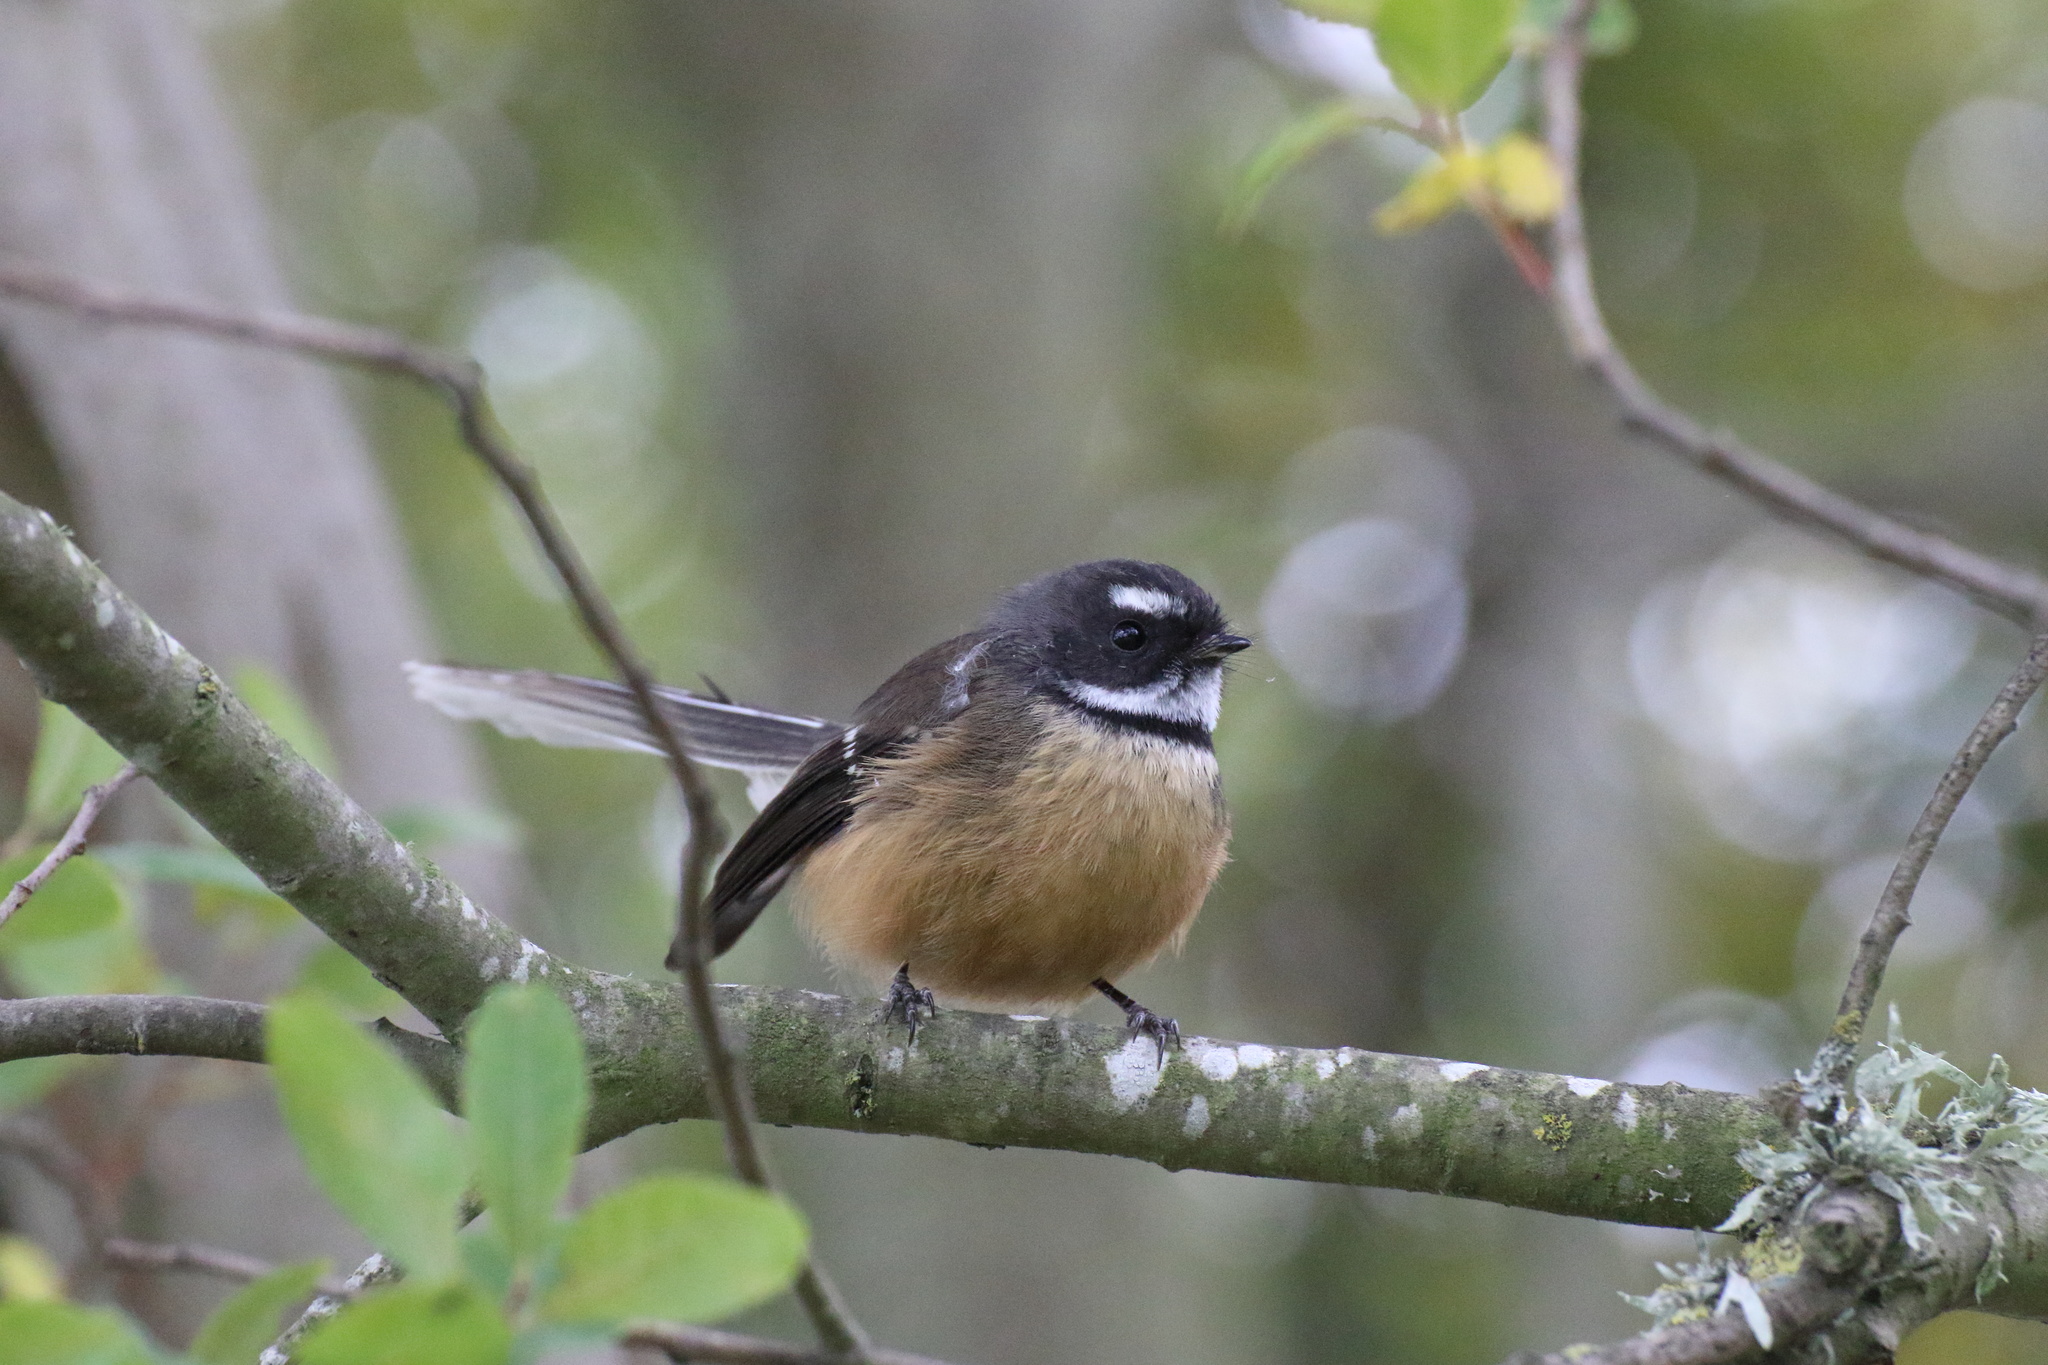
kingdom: Animalia
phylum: Chordata
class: Aves
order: Passeriformes
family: Rhipiduridae
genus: Rhipidura
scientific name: Rhipidura fuliginosa
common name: New zealand fantail
